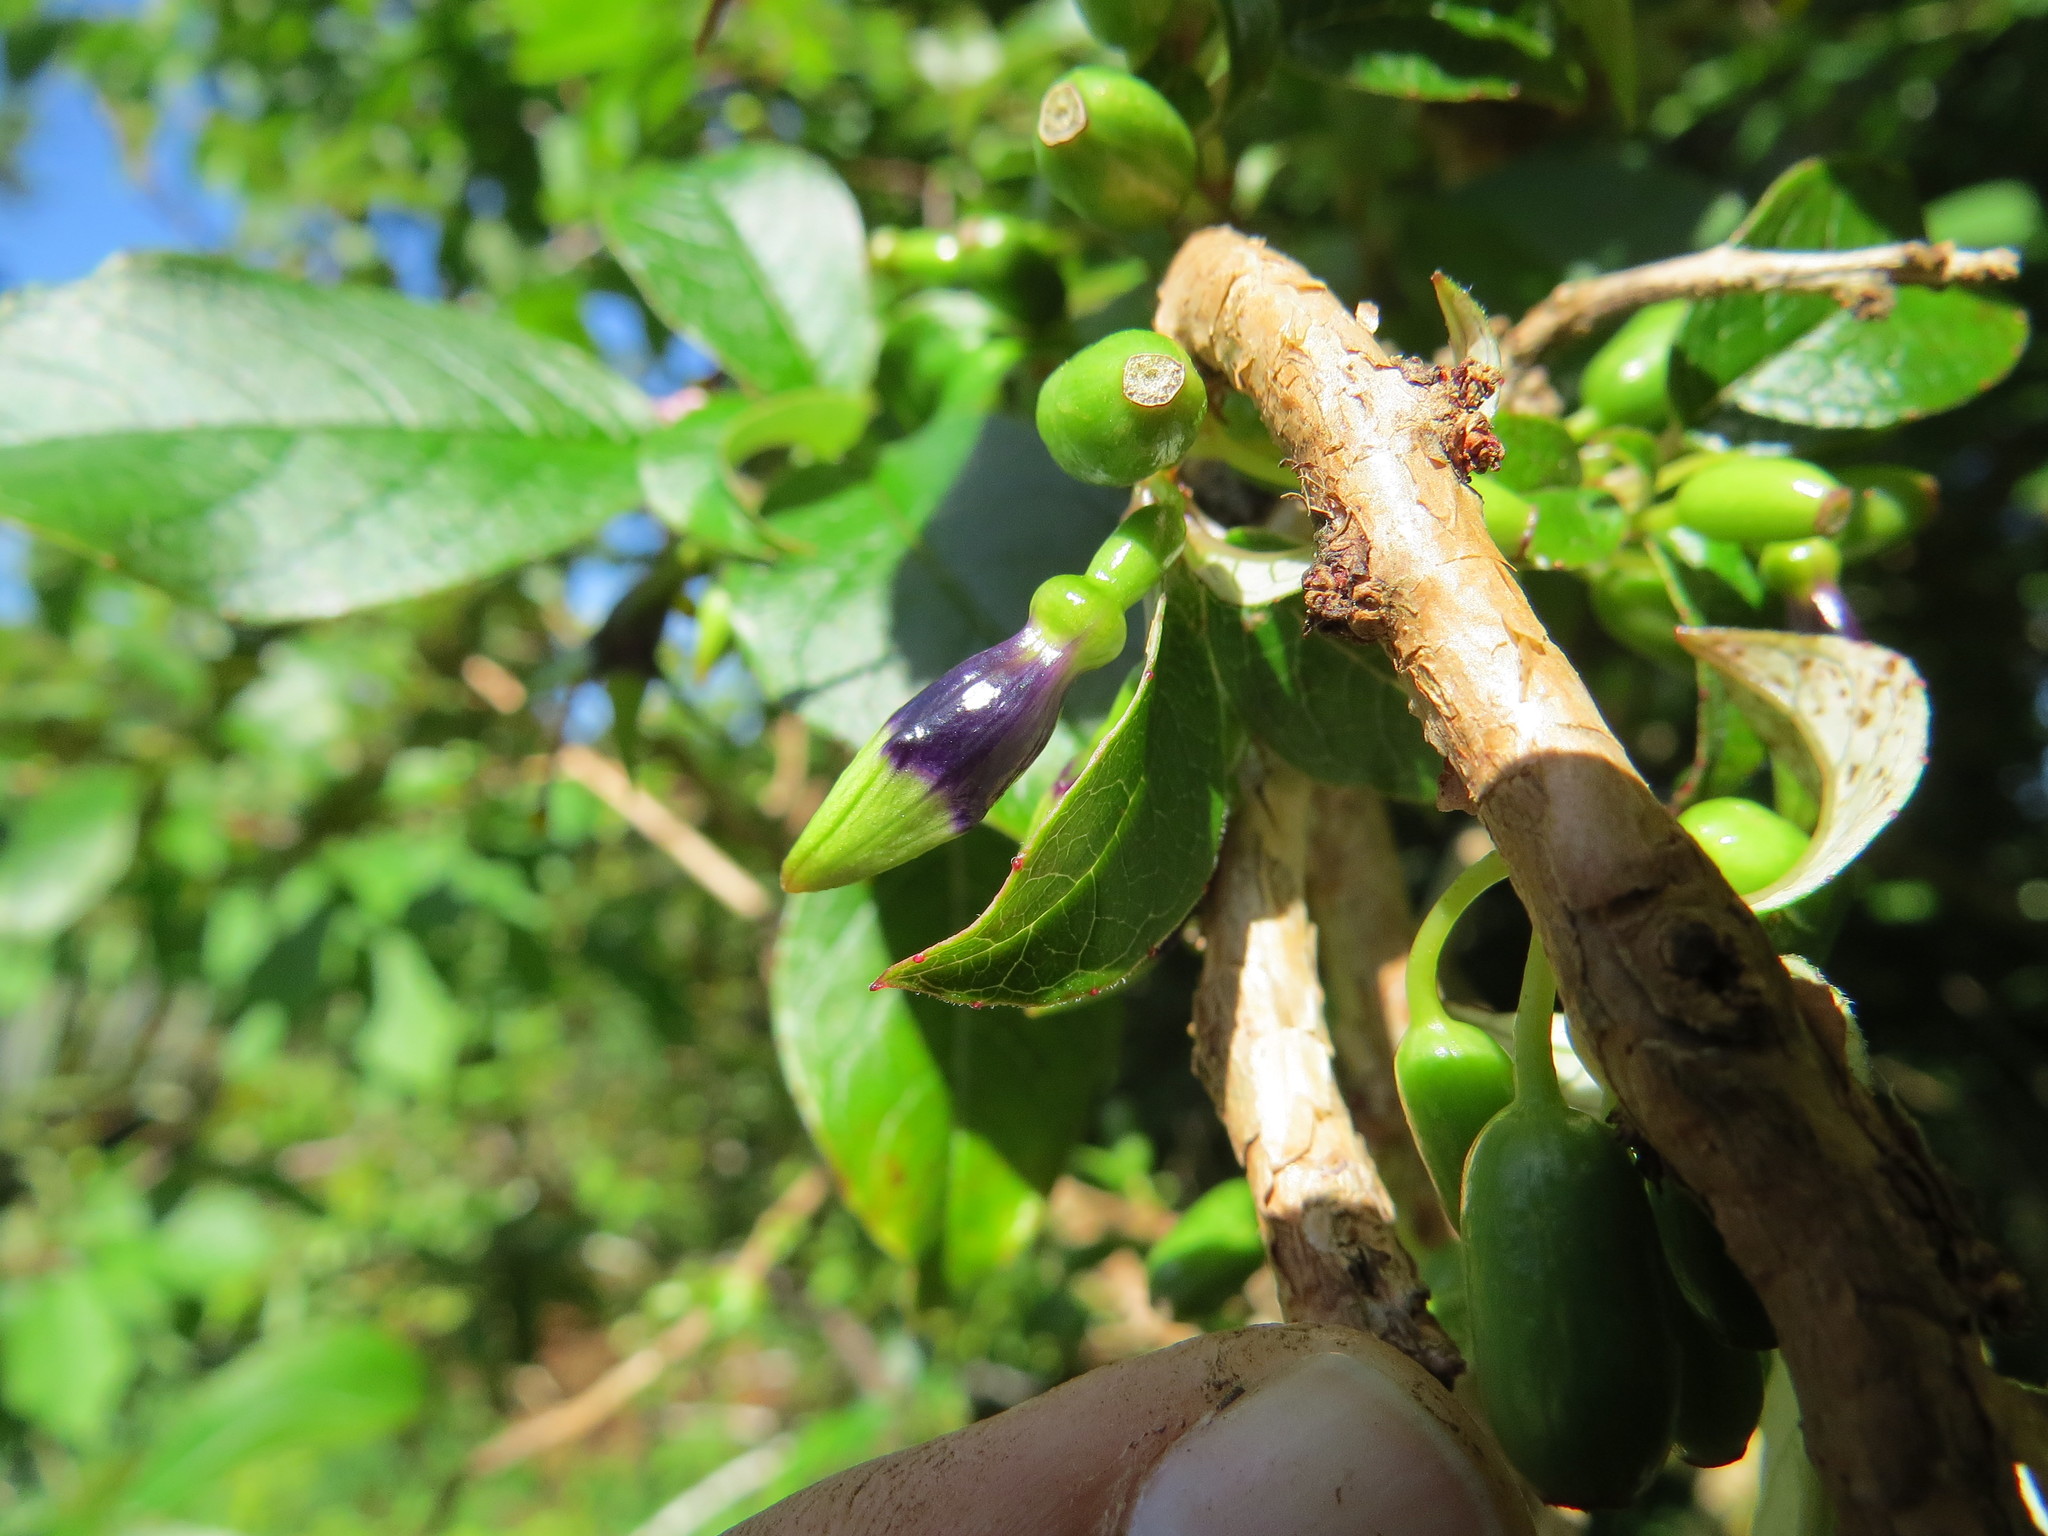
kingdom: Plantae
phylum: Tracheophyta
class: Magnoliopsida
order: Myrtales
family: Onagraceae
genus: Fuchsia
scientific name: Fuchsia excorticata
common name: Tree fuchsia
